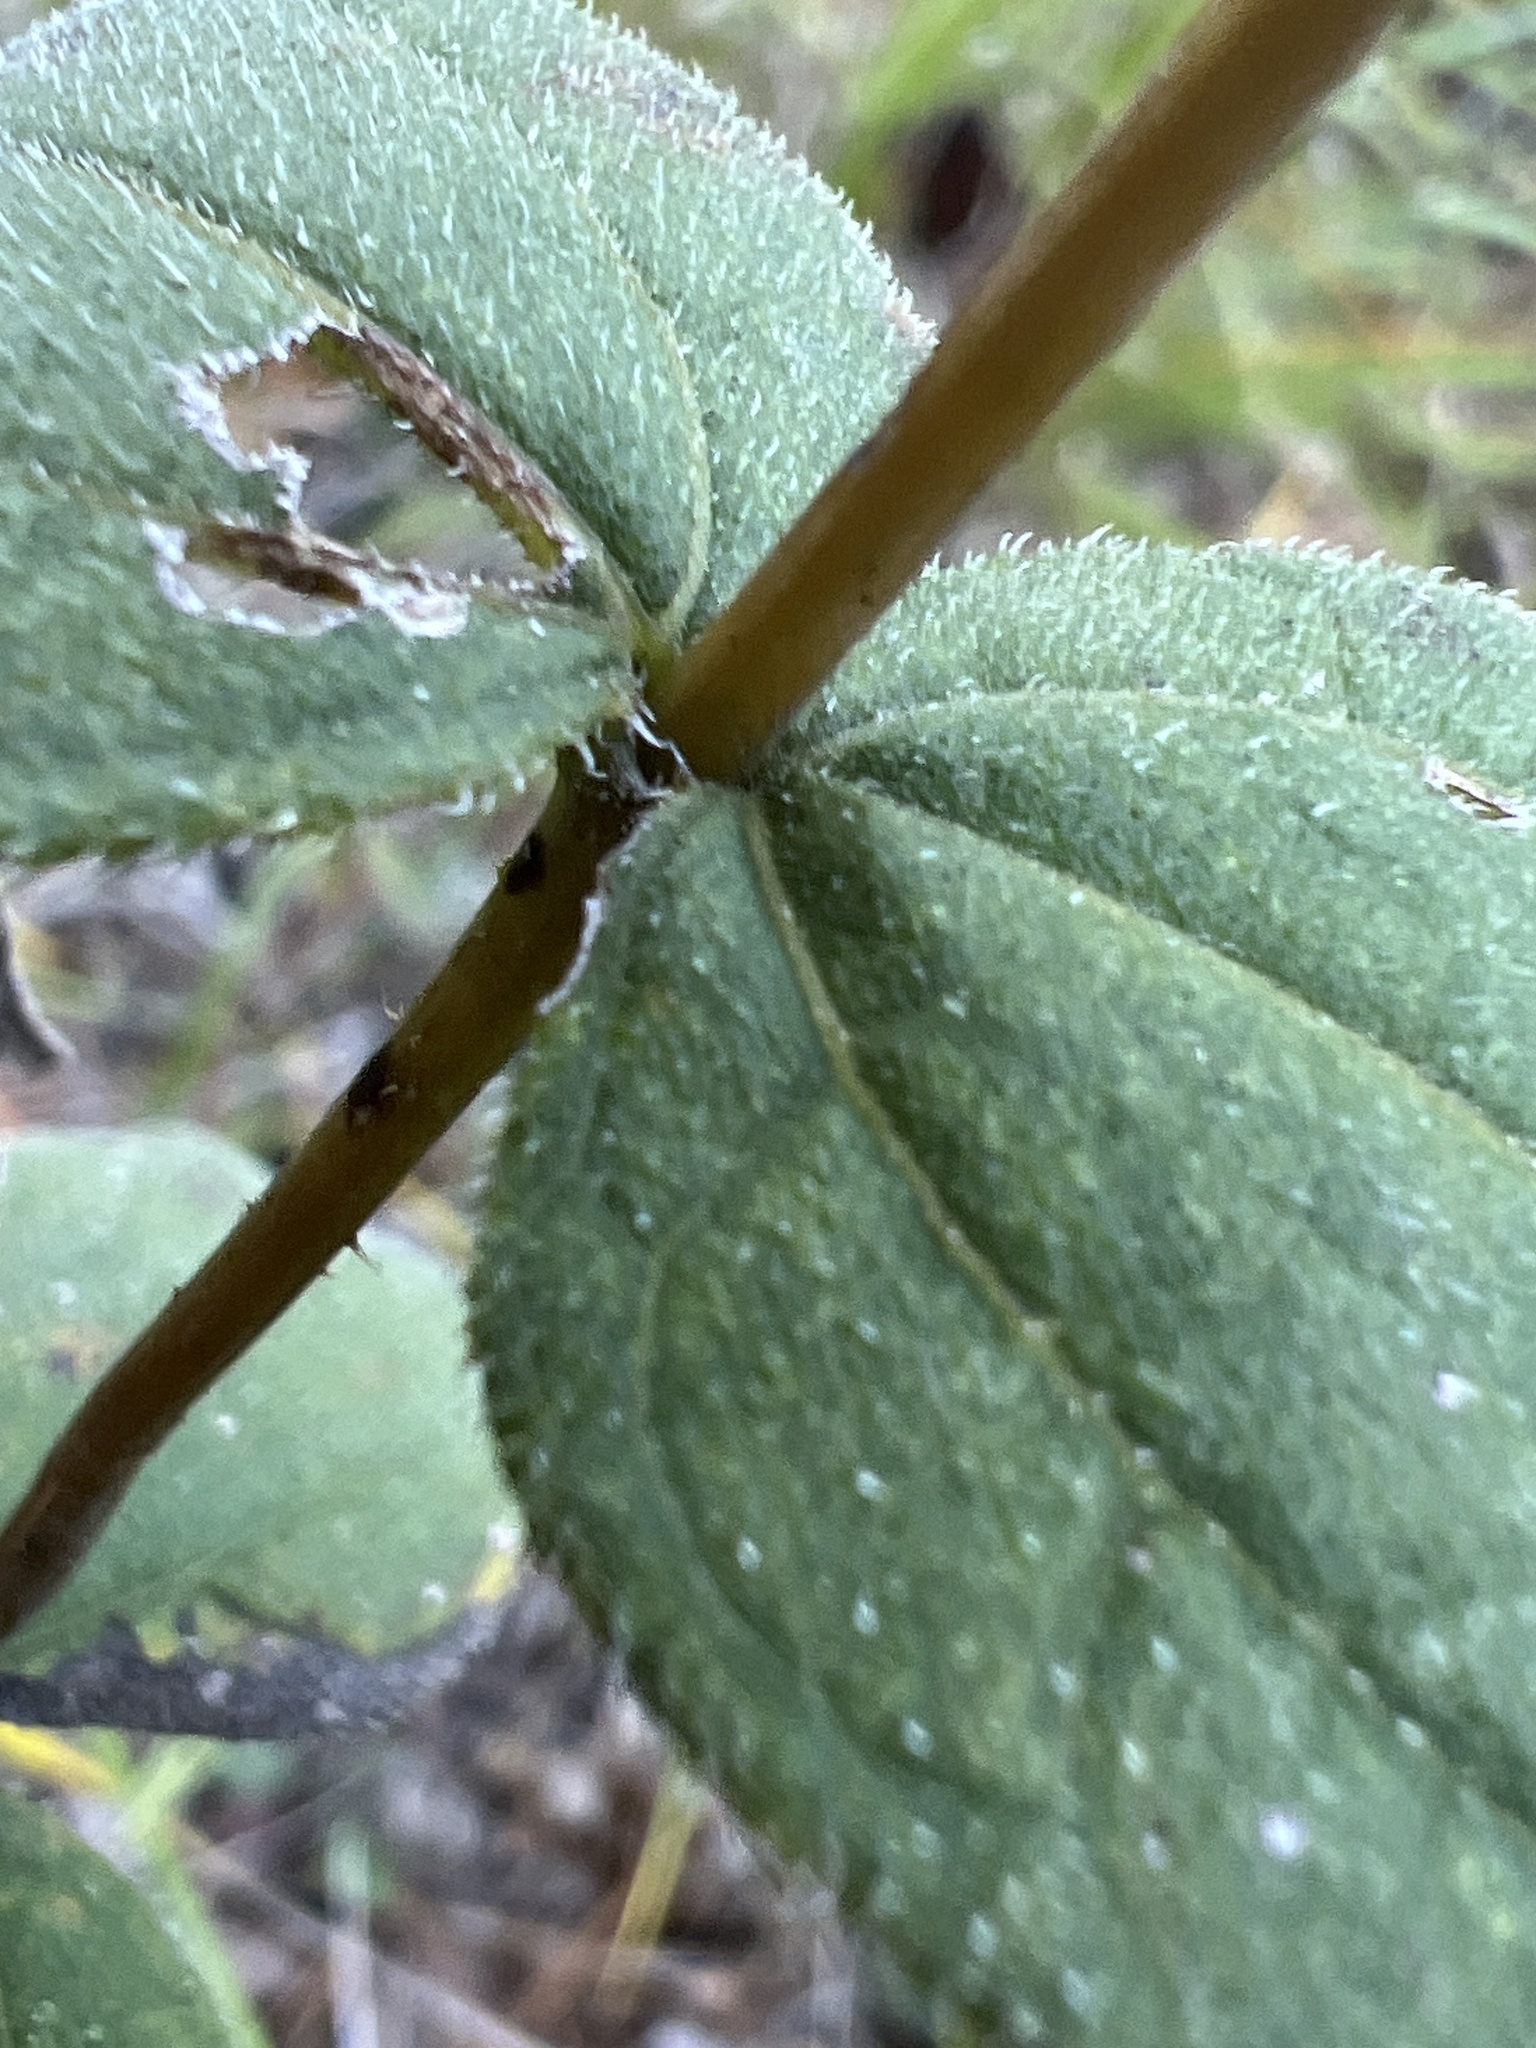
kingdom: Plantae
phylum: Tracheophyta
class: Magnoliopsida
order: Asterales
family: Asteraceae
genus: Helianthus
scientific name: Helianthus divaricatus
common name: Divergent sunflower
